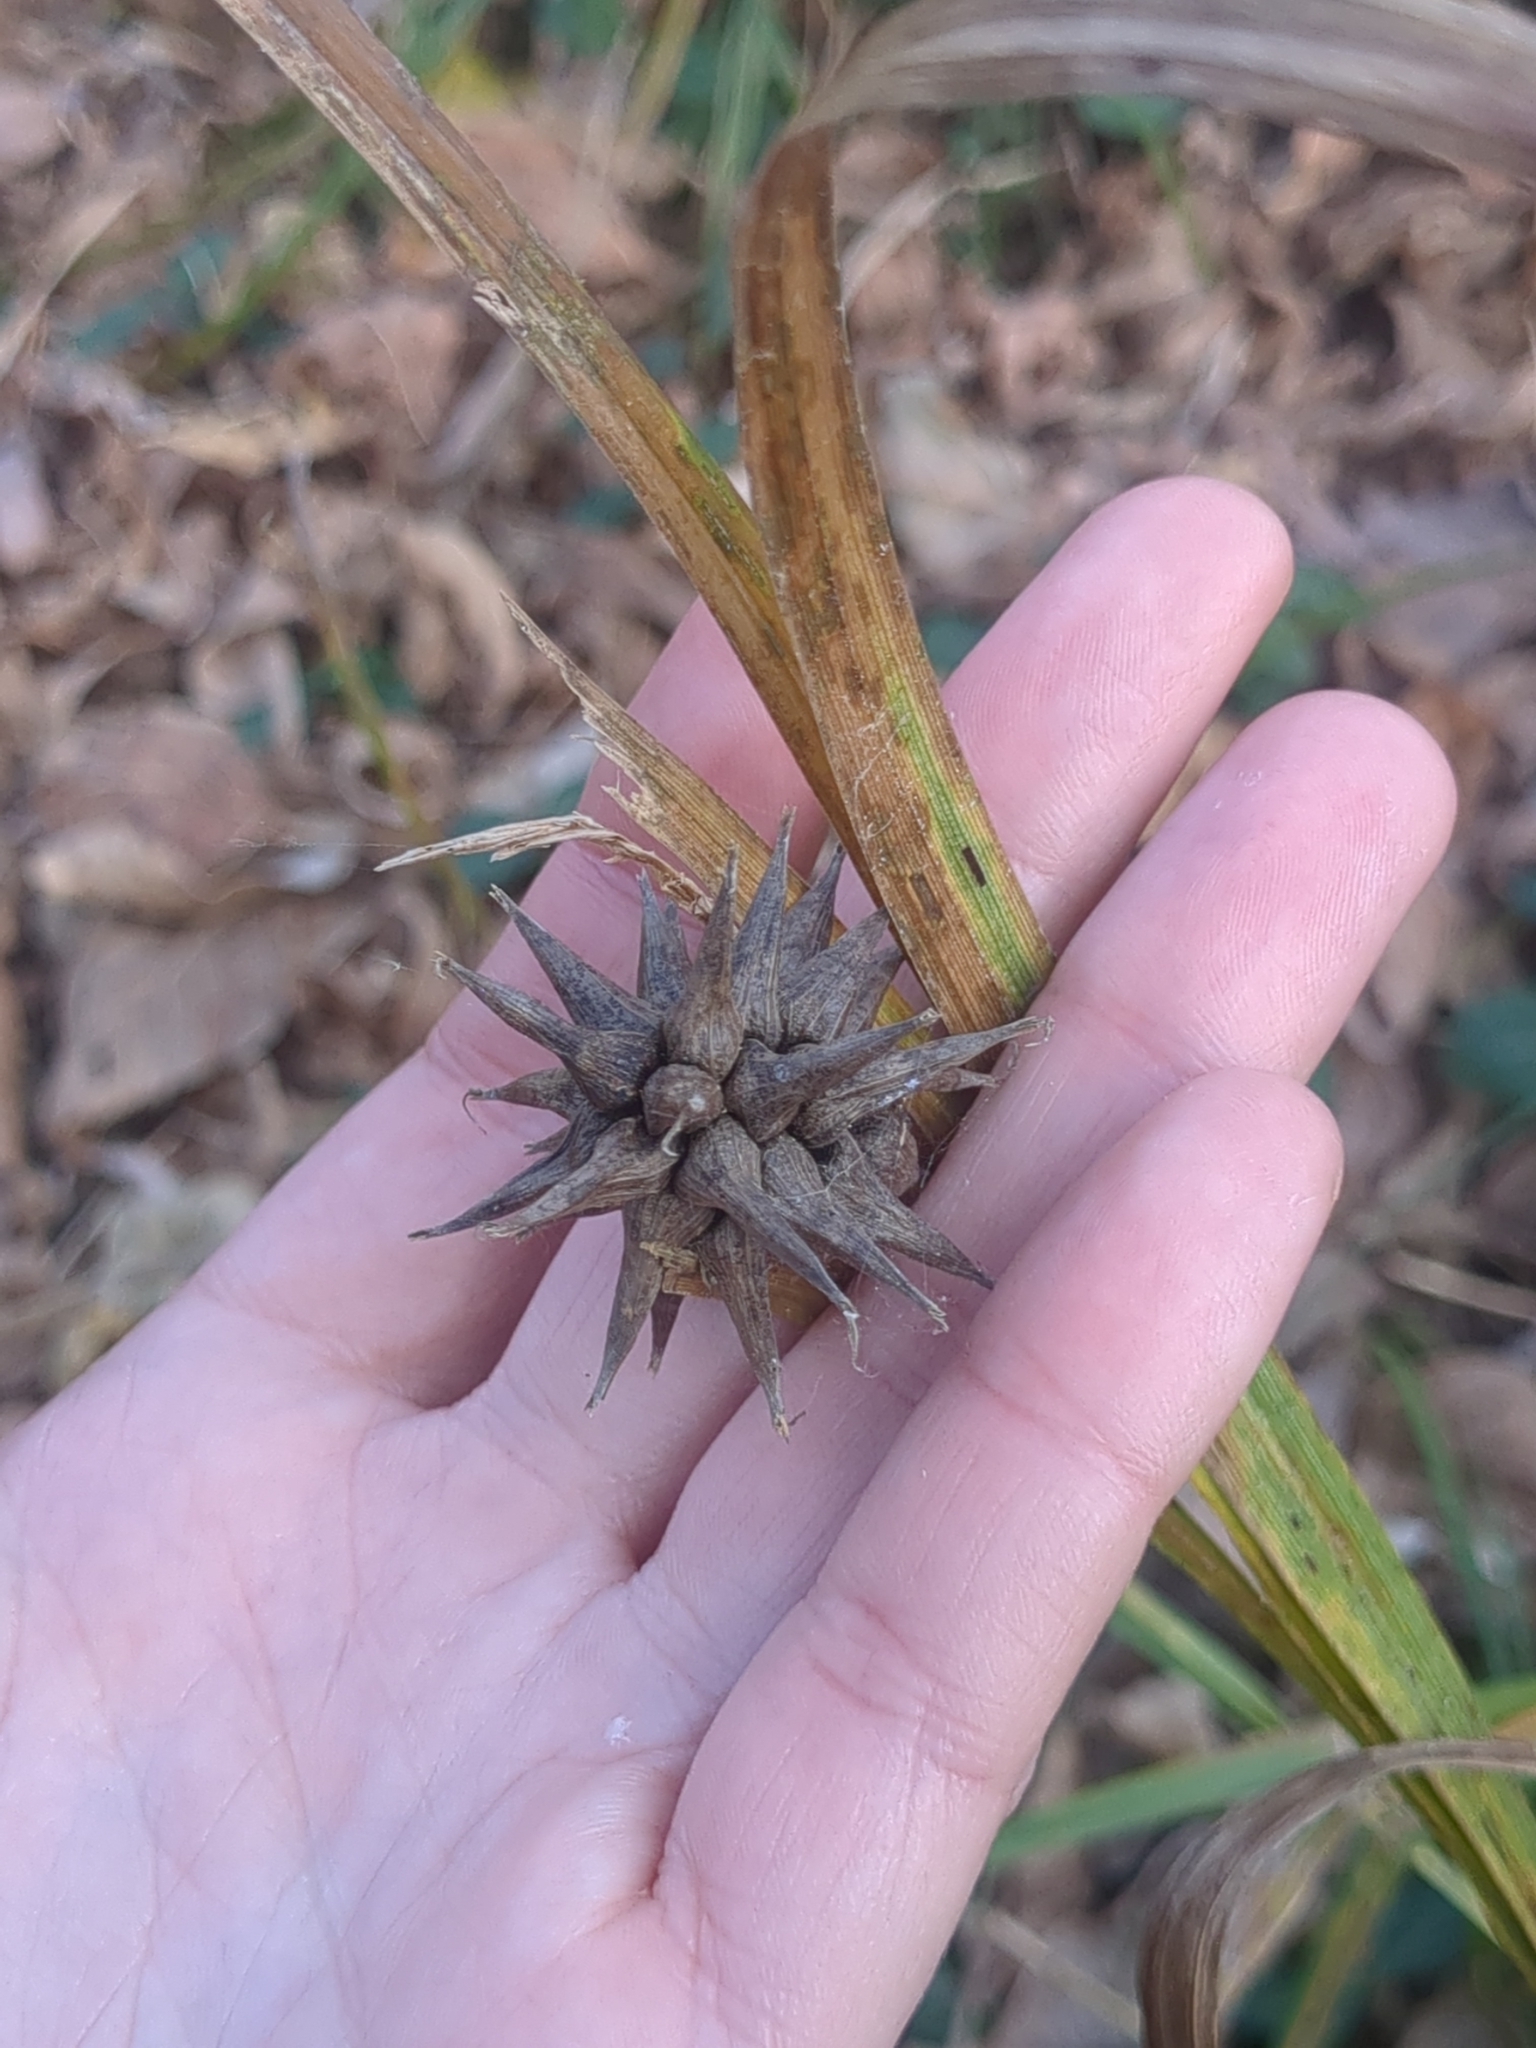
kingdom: Plantae
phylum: Tracheophyta
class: Liliopsida
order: Poales
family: Cyperaceae
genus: Carex
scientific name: Carex grayi
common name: Asa gray's sedge
